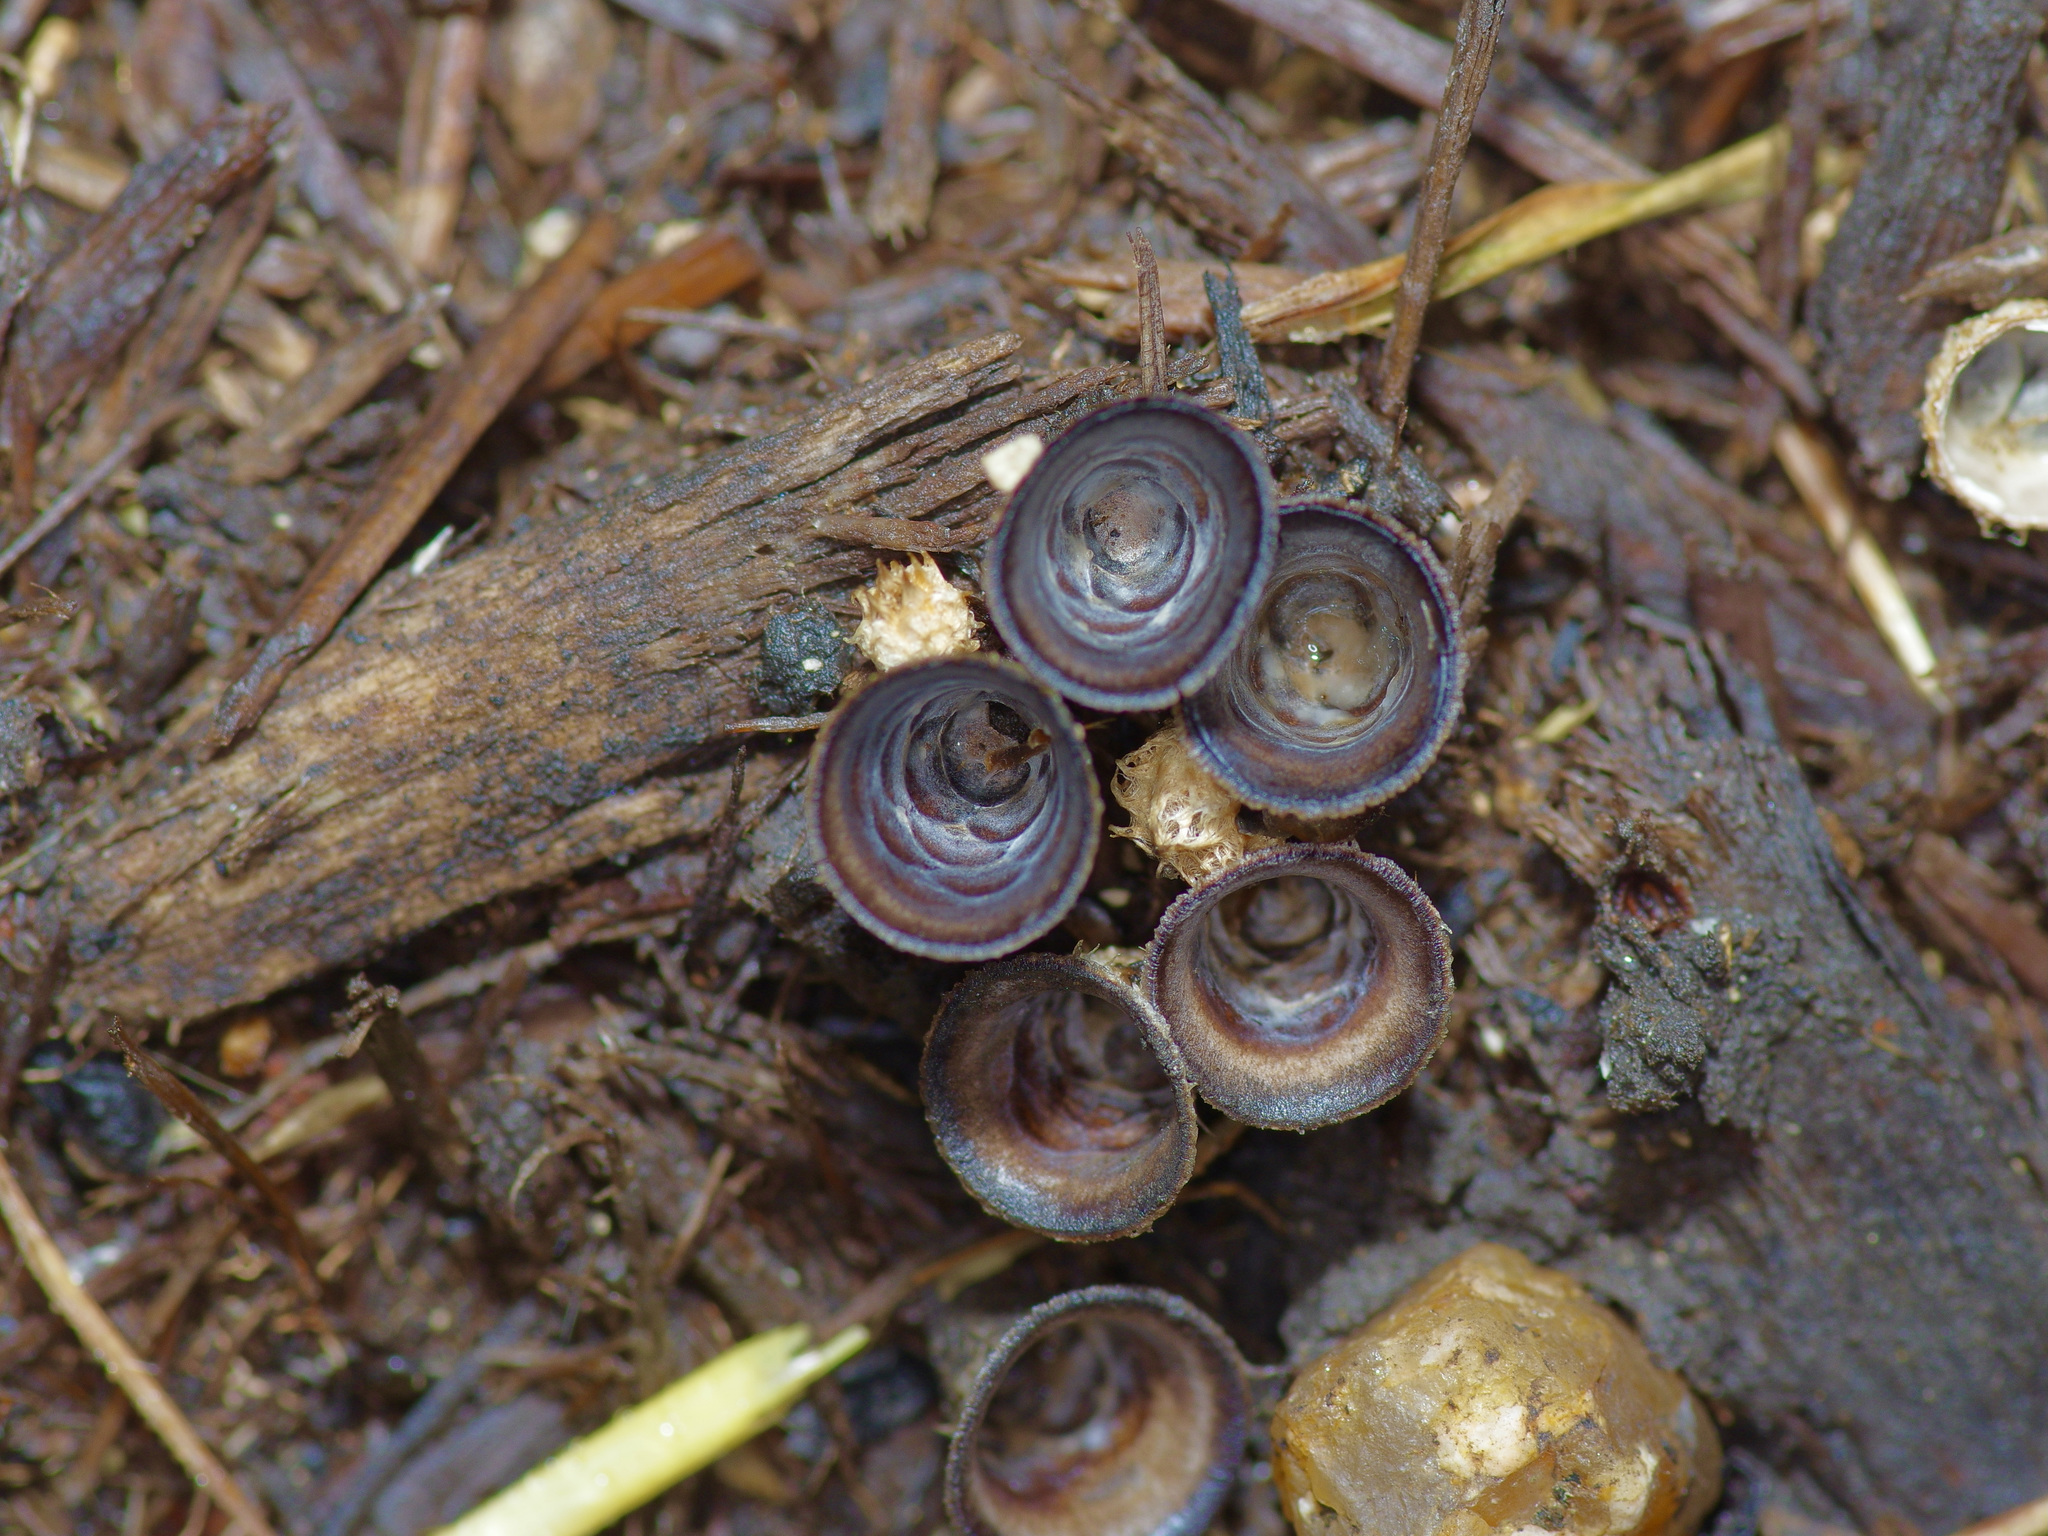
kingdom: Fungi
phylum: Basidiomycota
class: Agaricomycetes
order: Agaricales
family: Agaricaceae
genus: Cyathus
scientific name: Cyathus olla
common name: Field bird's nest
